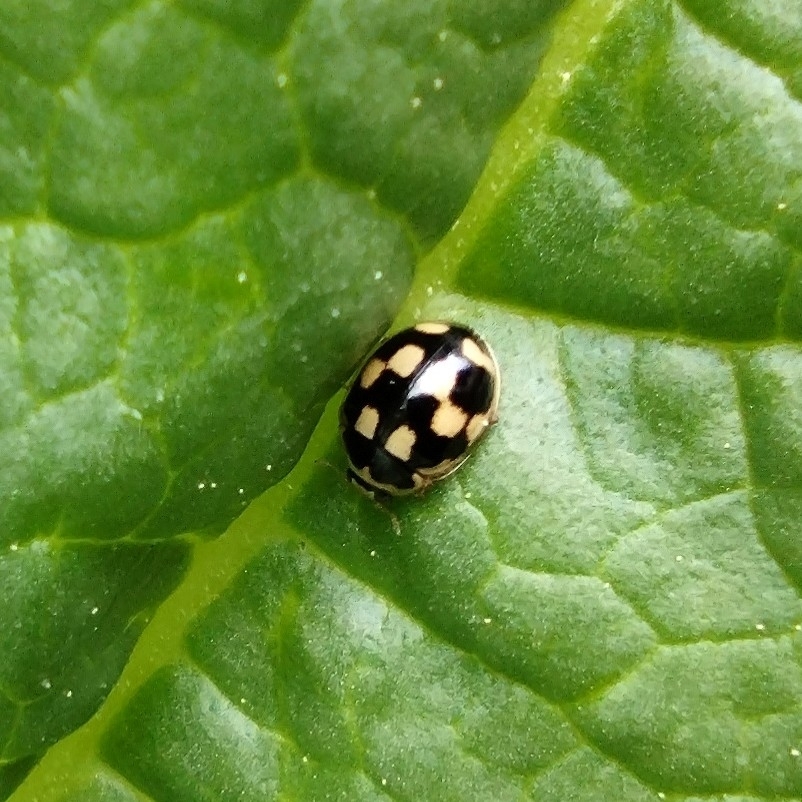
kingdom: Animalia
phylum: Arthropoda
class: Insecta
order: Coleoptera
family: Coccinellidae
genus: Propylaea
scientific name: Propylaea quatuordecimpunctata
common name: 14-spotted ladybird beetle
